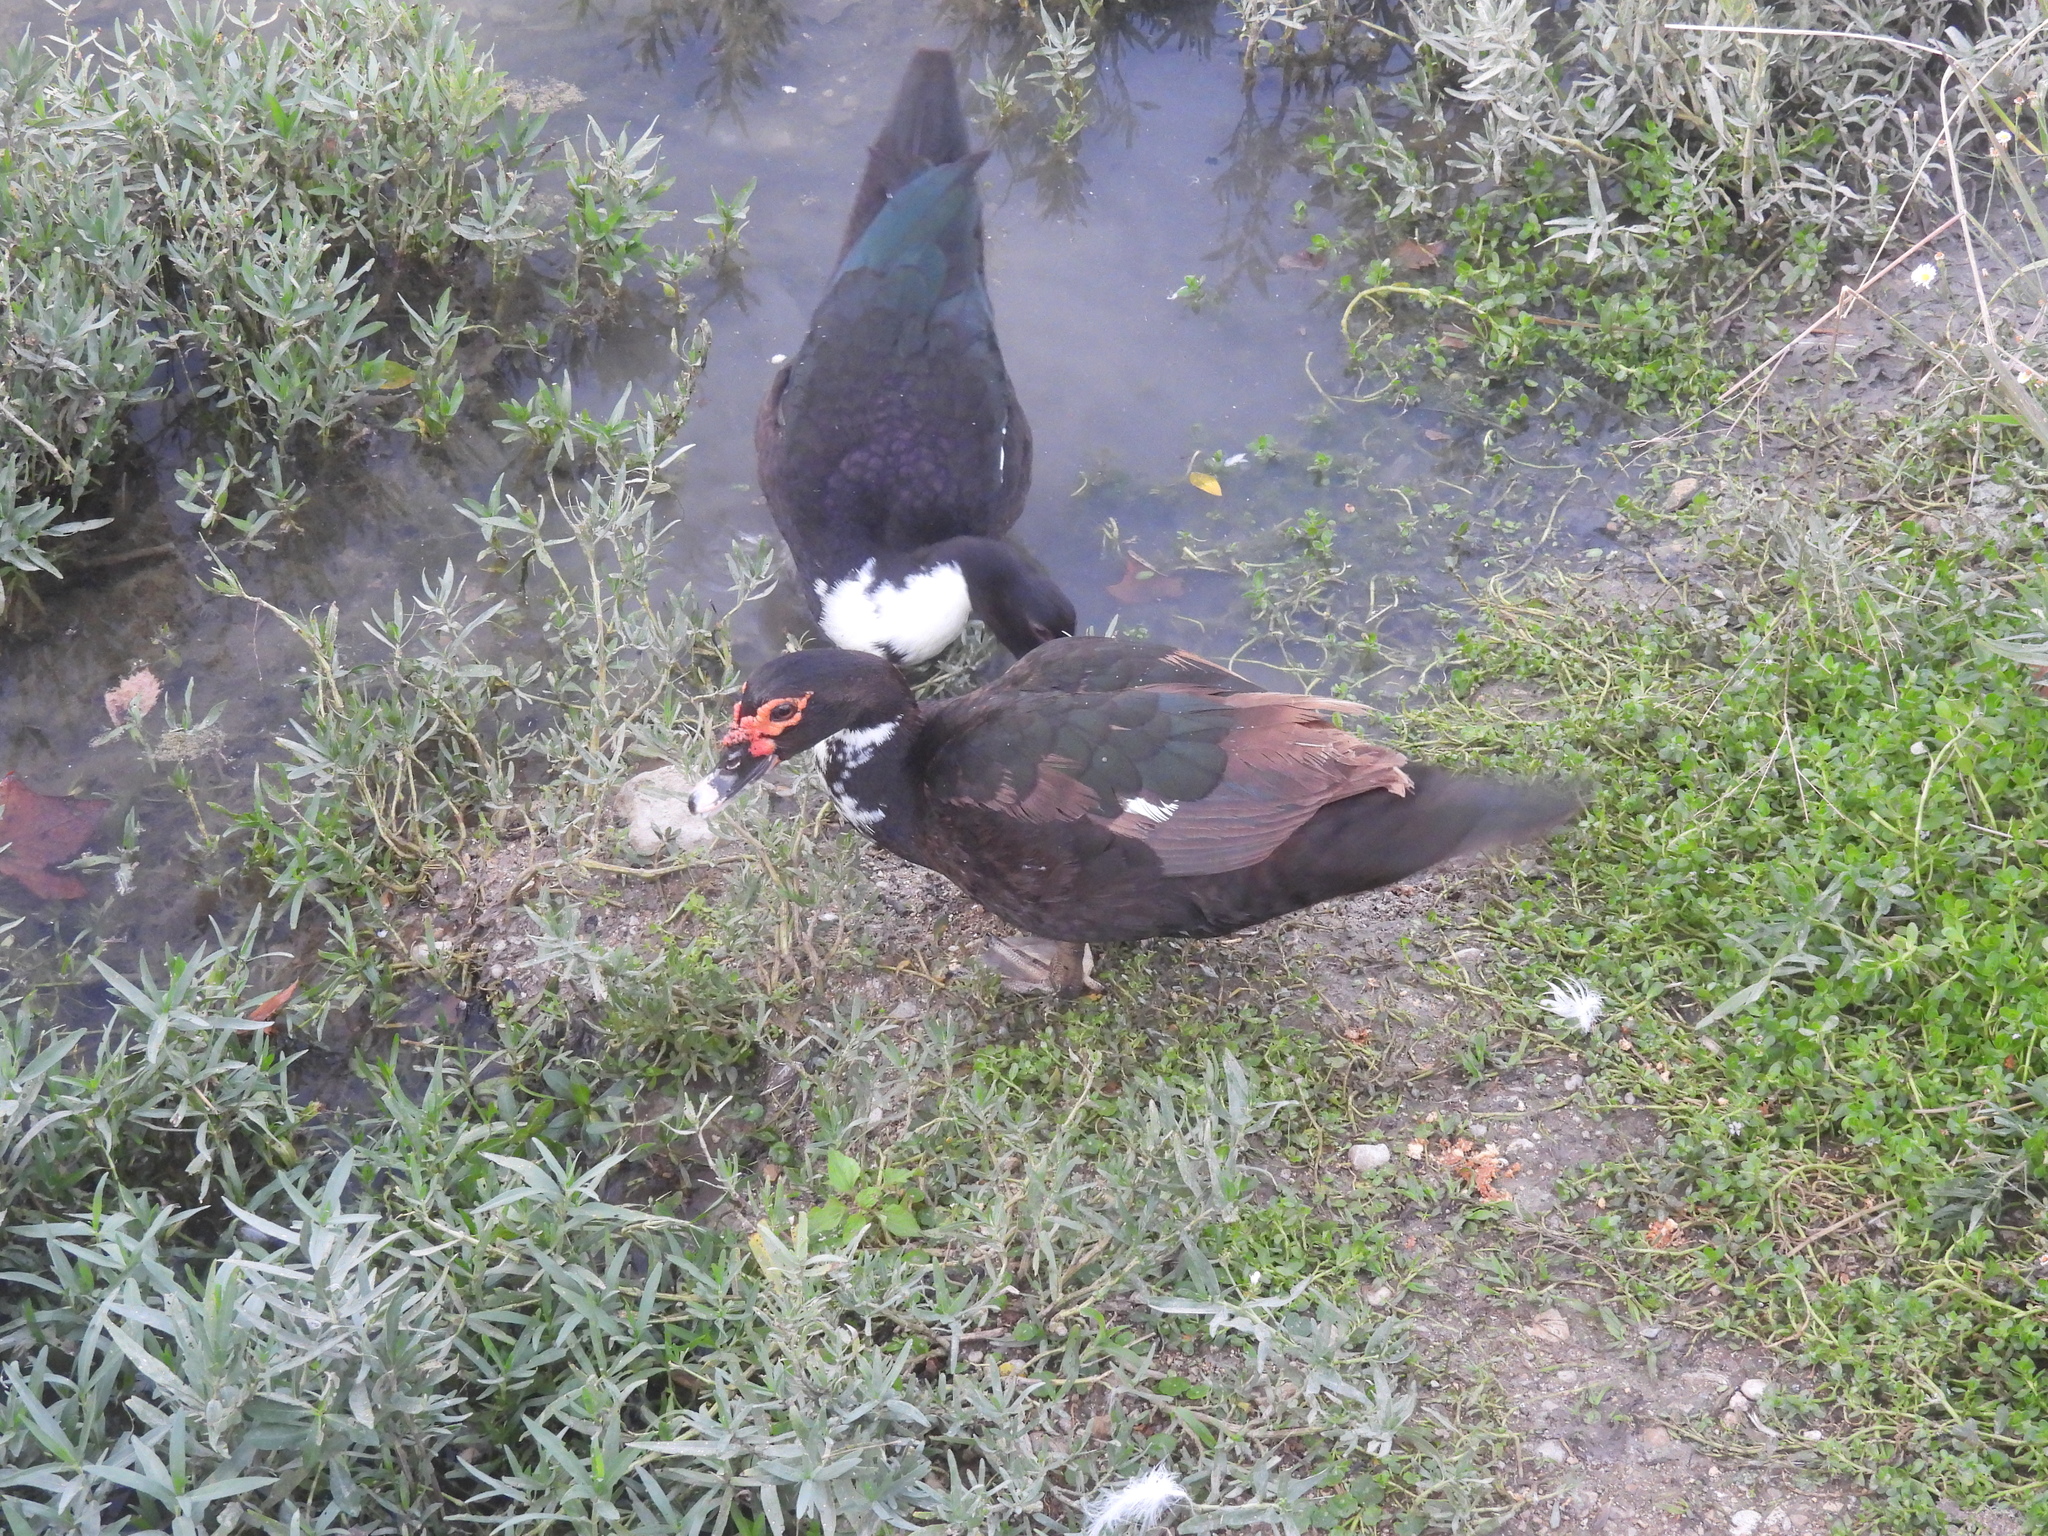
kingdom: Animalia
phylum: Chordata
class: Aves
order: Anseriformes
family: Anatidae
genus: Cairina
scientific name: Cairina moschata
